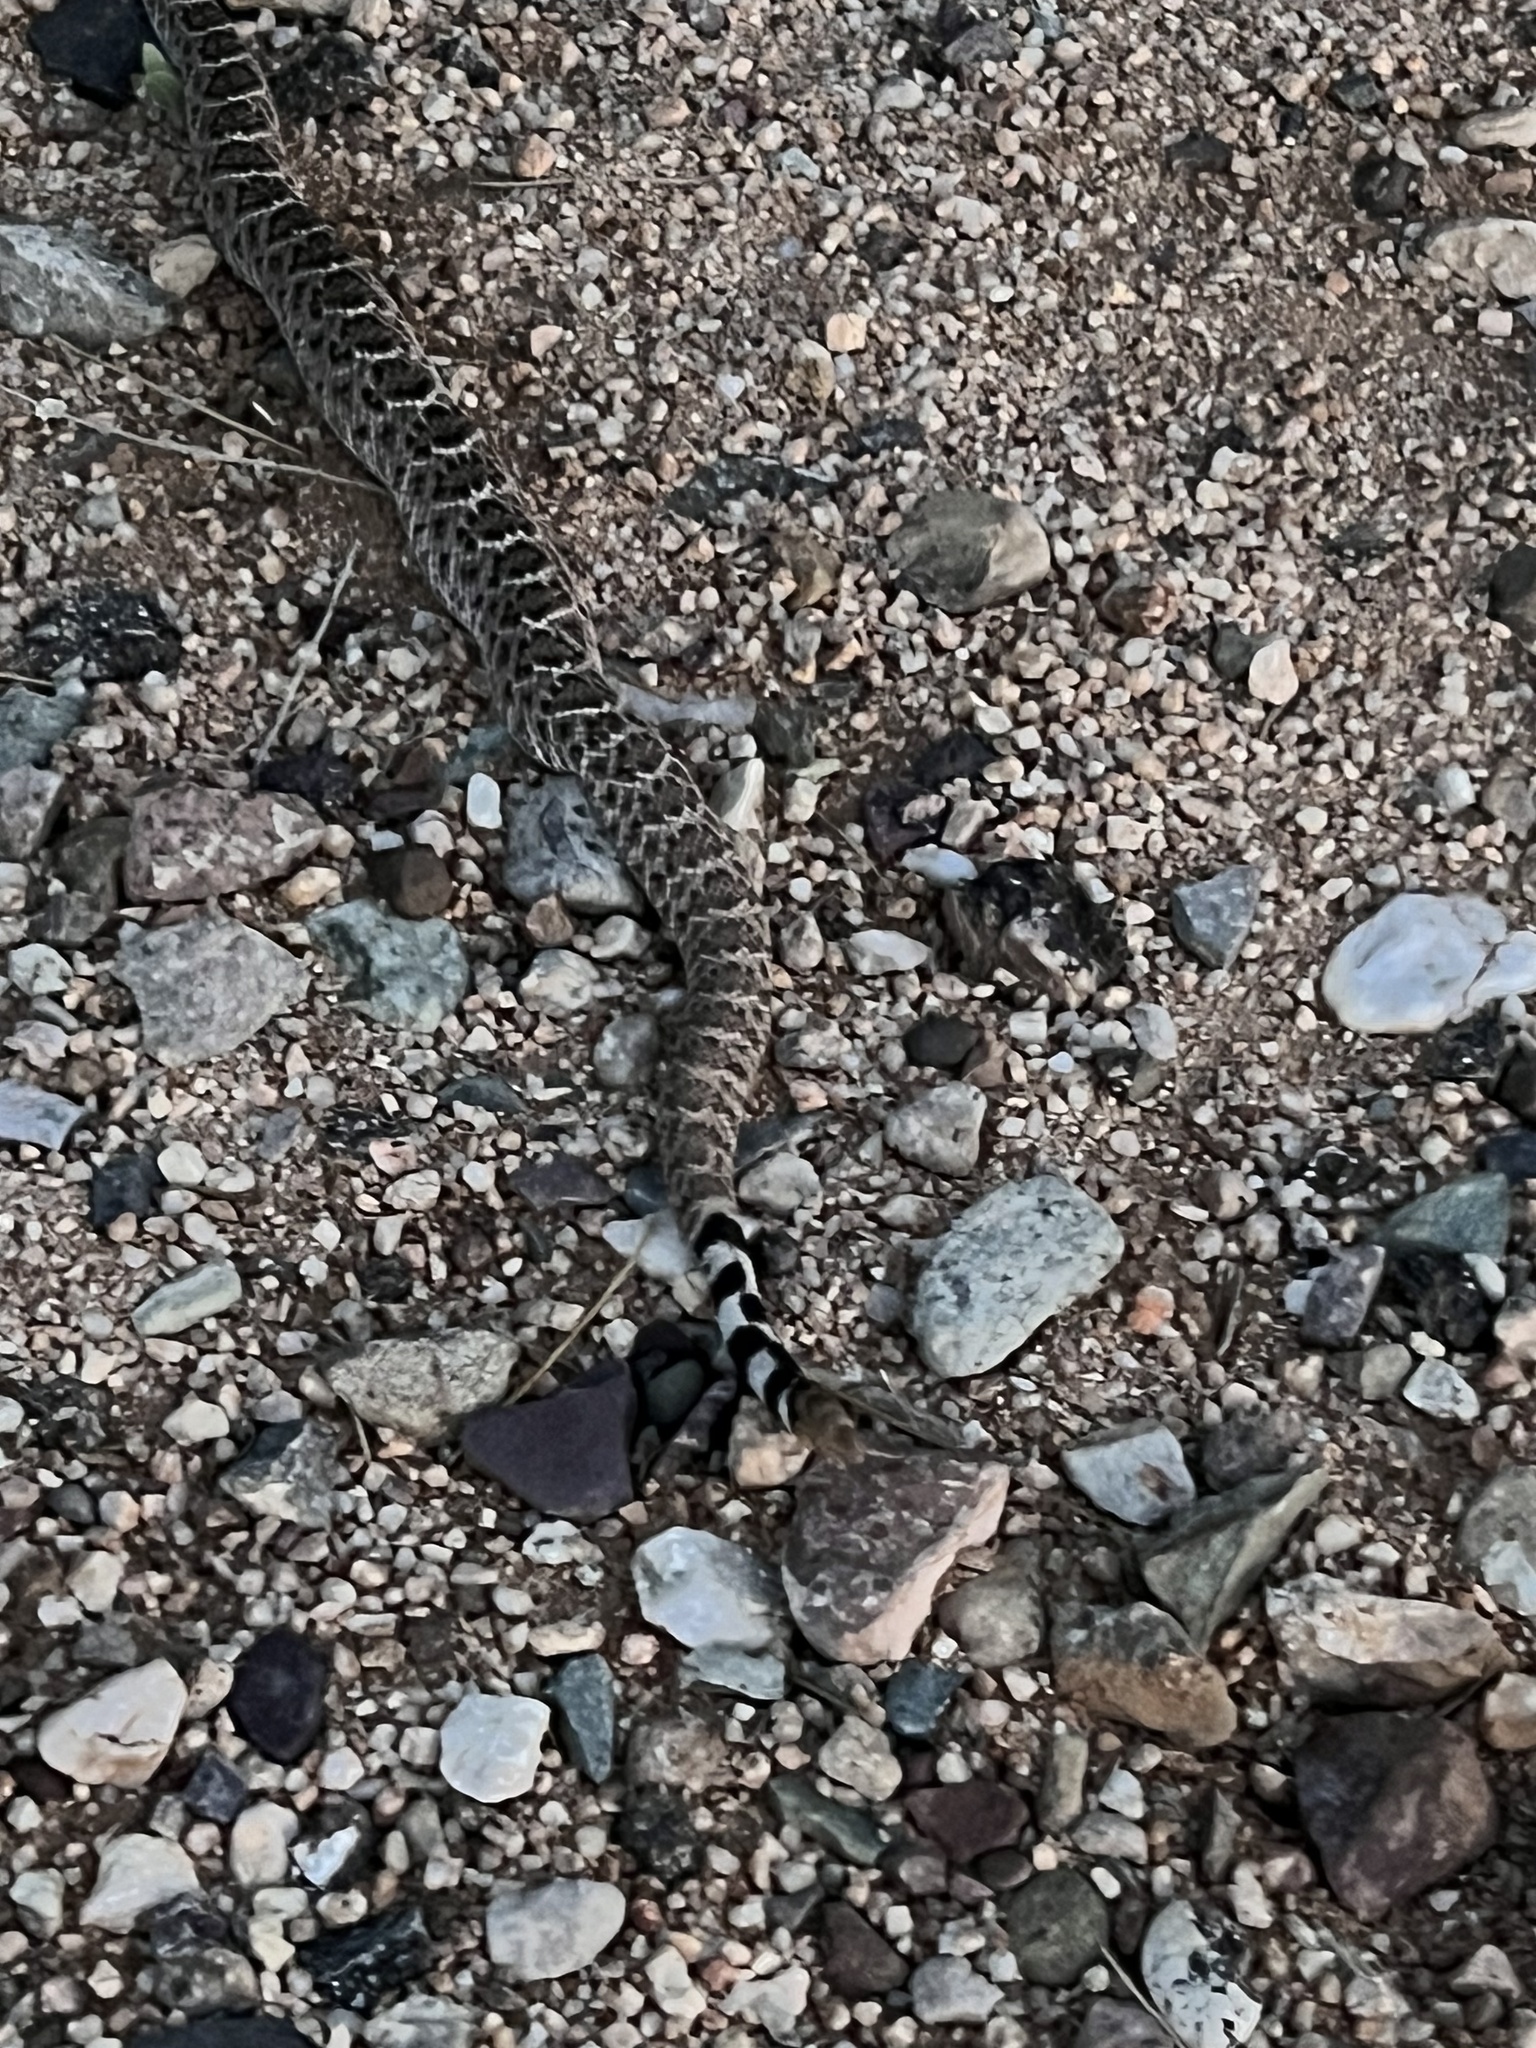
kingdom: Animalia
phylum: Chordata
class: Squamata
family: Viperidae
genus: Crotalus
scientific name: Crotalus atrox
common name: Western diamond-backed rattlesnake
